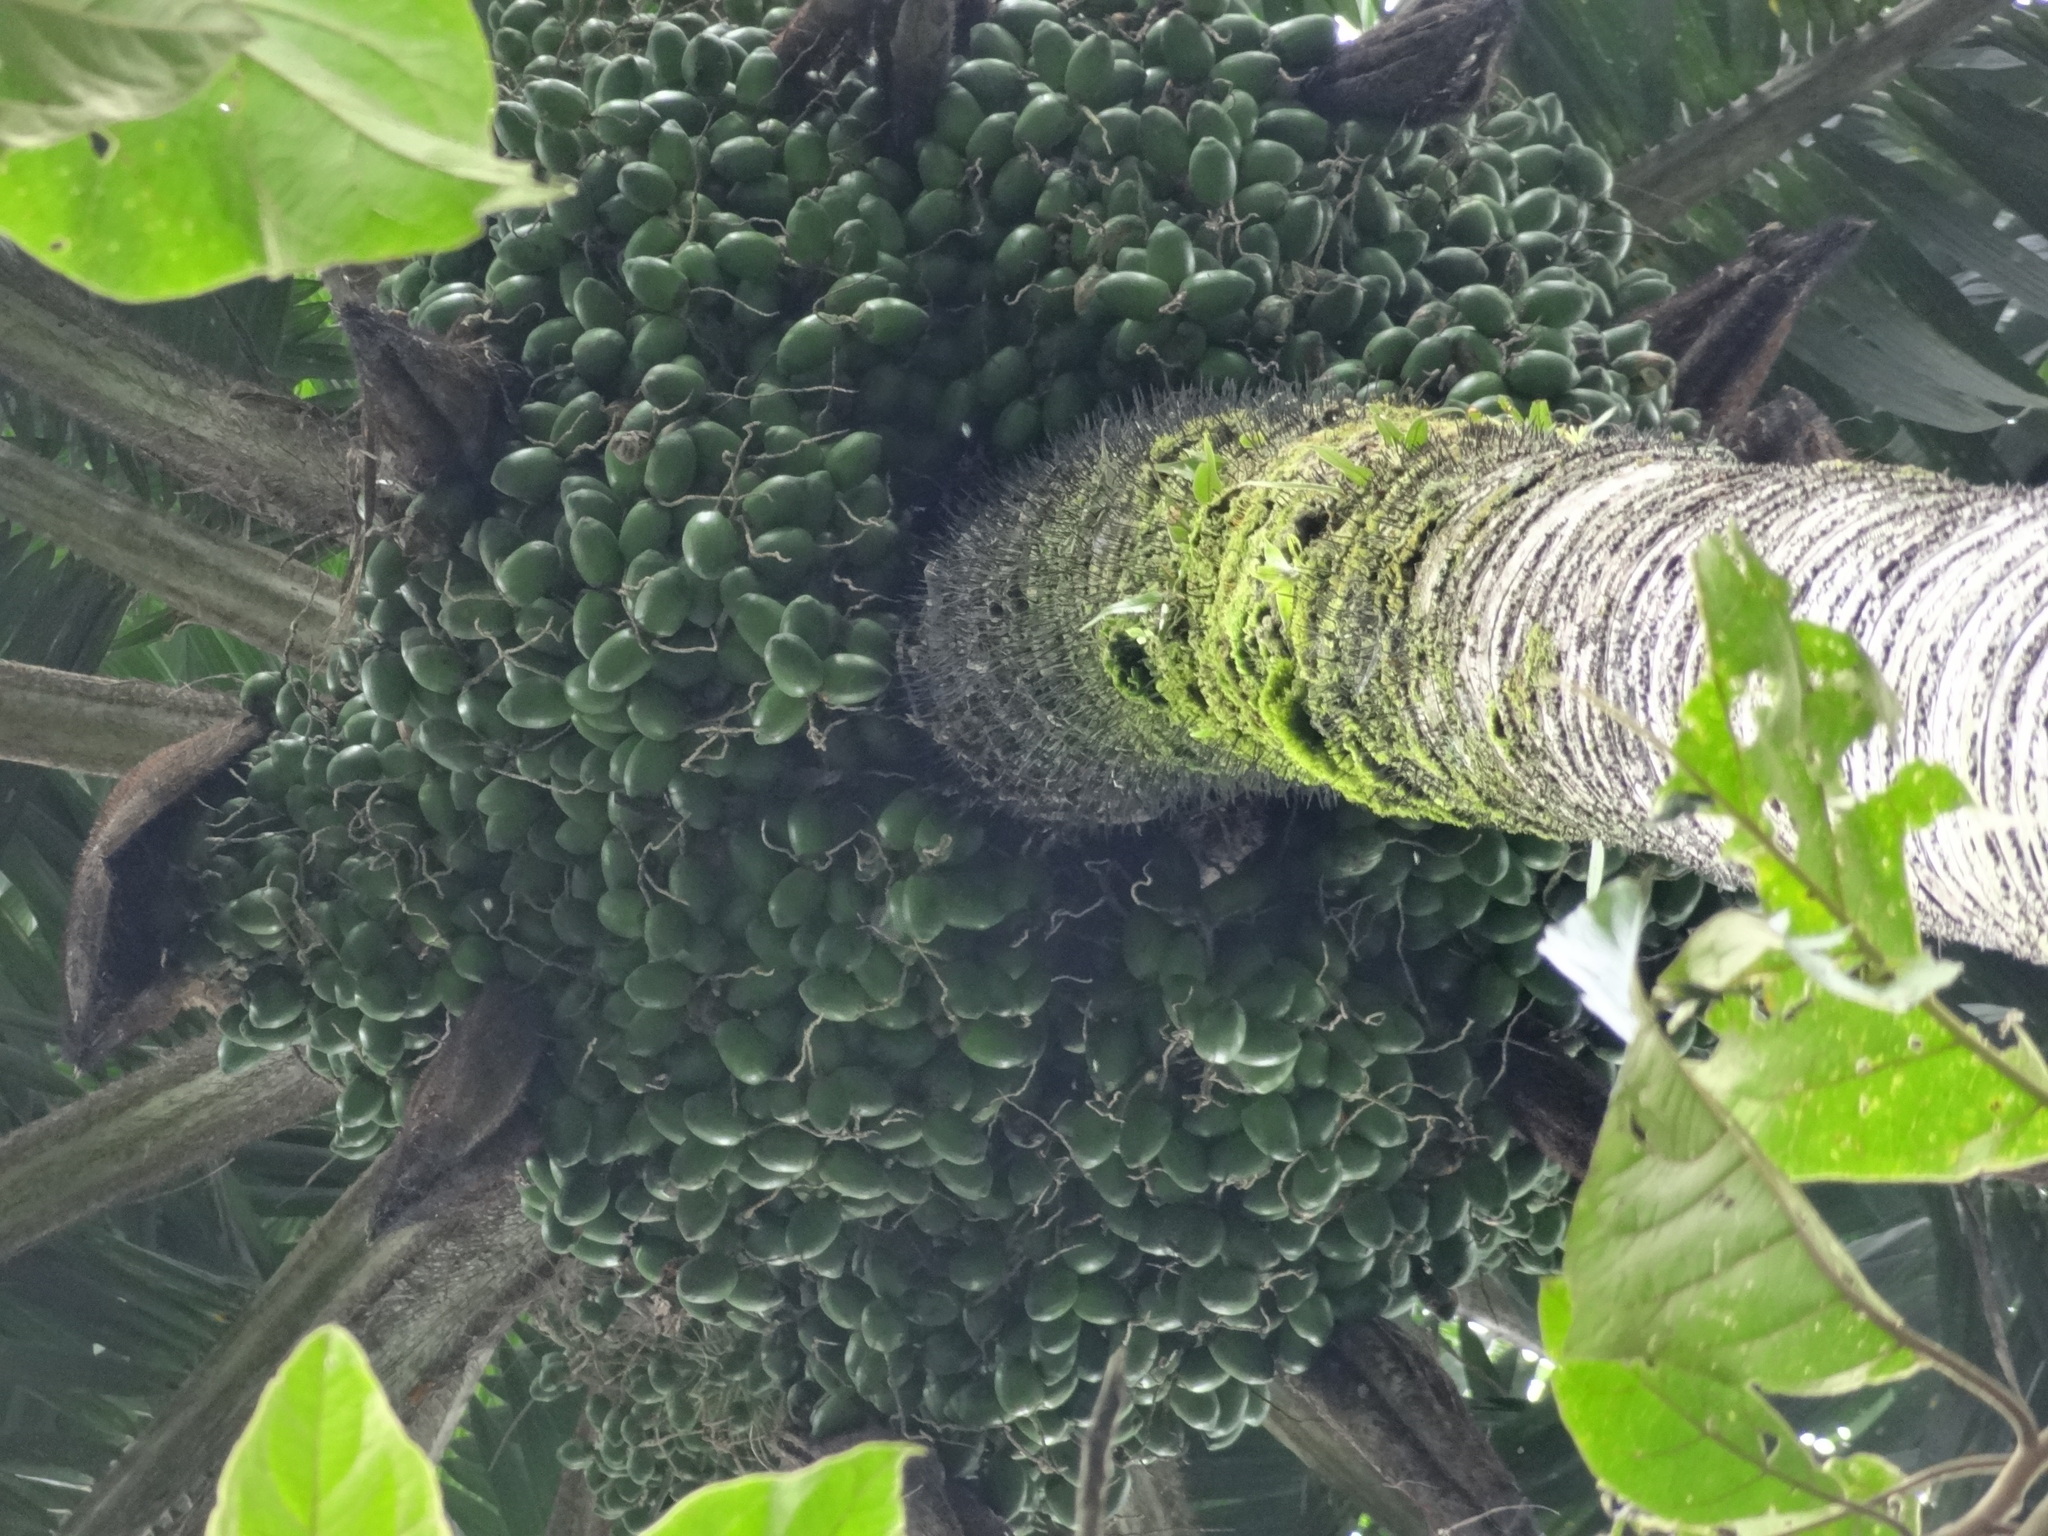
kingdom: Plantae
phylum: Tracheophyta
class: Liliopsida
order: Arecales
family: Arecaceae
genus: Bactris
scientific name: Bactris gasipaes
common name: Peach palm
